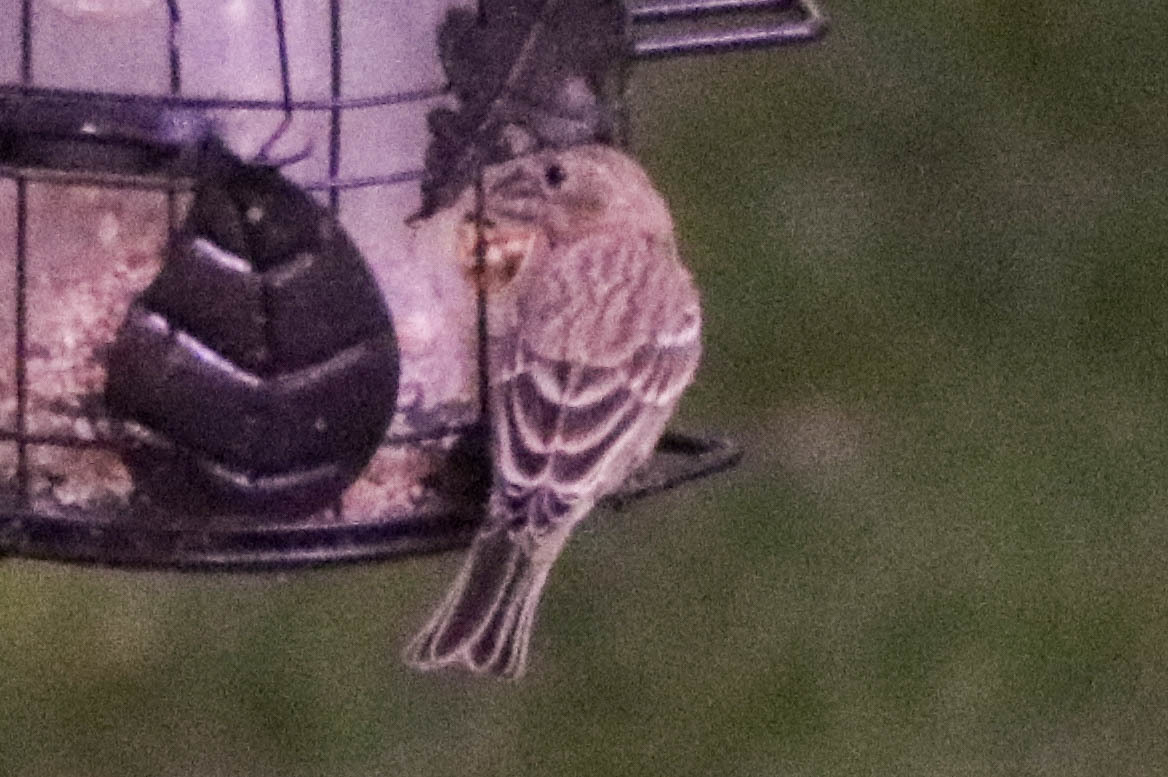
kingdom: Animalia
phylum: Chordata
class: Aves
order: Passeriformes
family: Fringillidae
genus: Haemorhous
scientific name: Haemorhous mexicanus
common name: House finch
